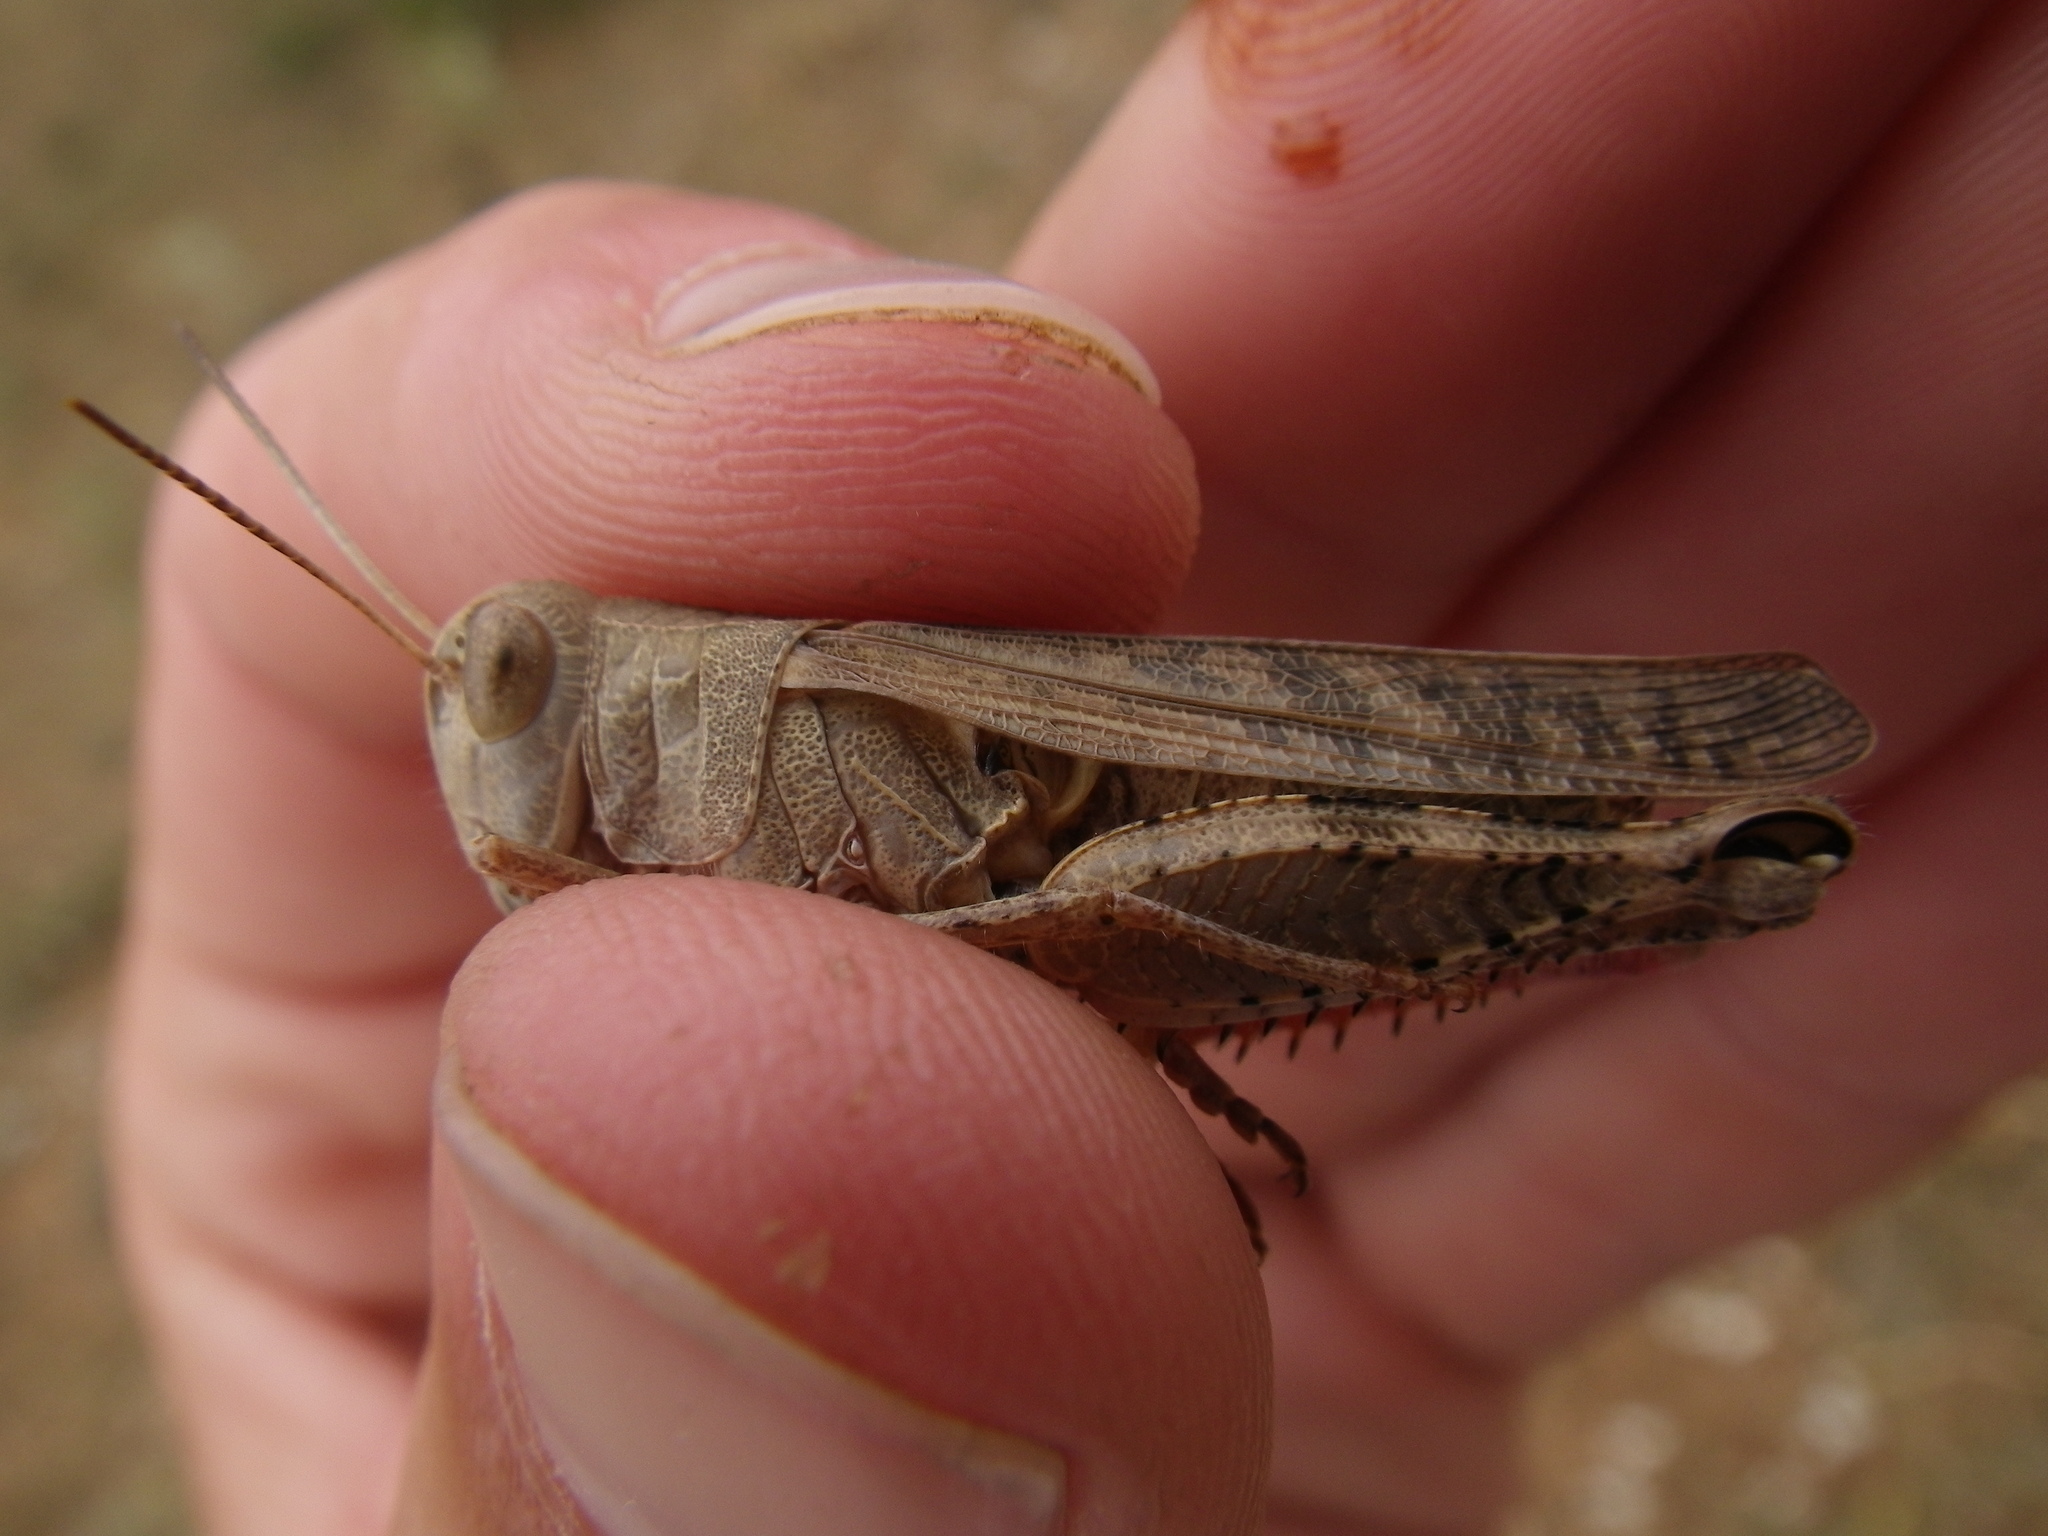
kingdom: Animalia
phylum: Arthropoda
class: Insecta
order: Orthoptera
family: Acrididae
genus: Calliptamus
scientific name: Calliptamus
